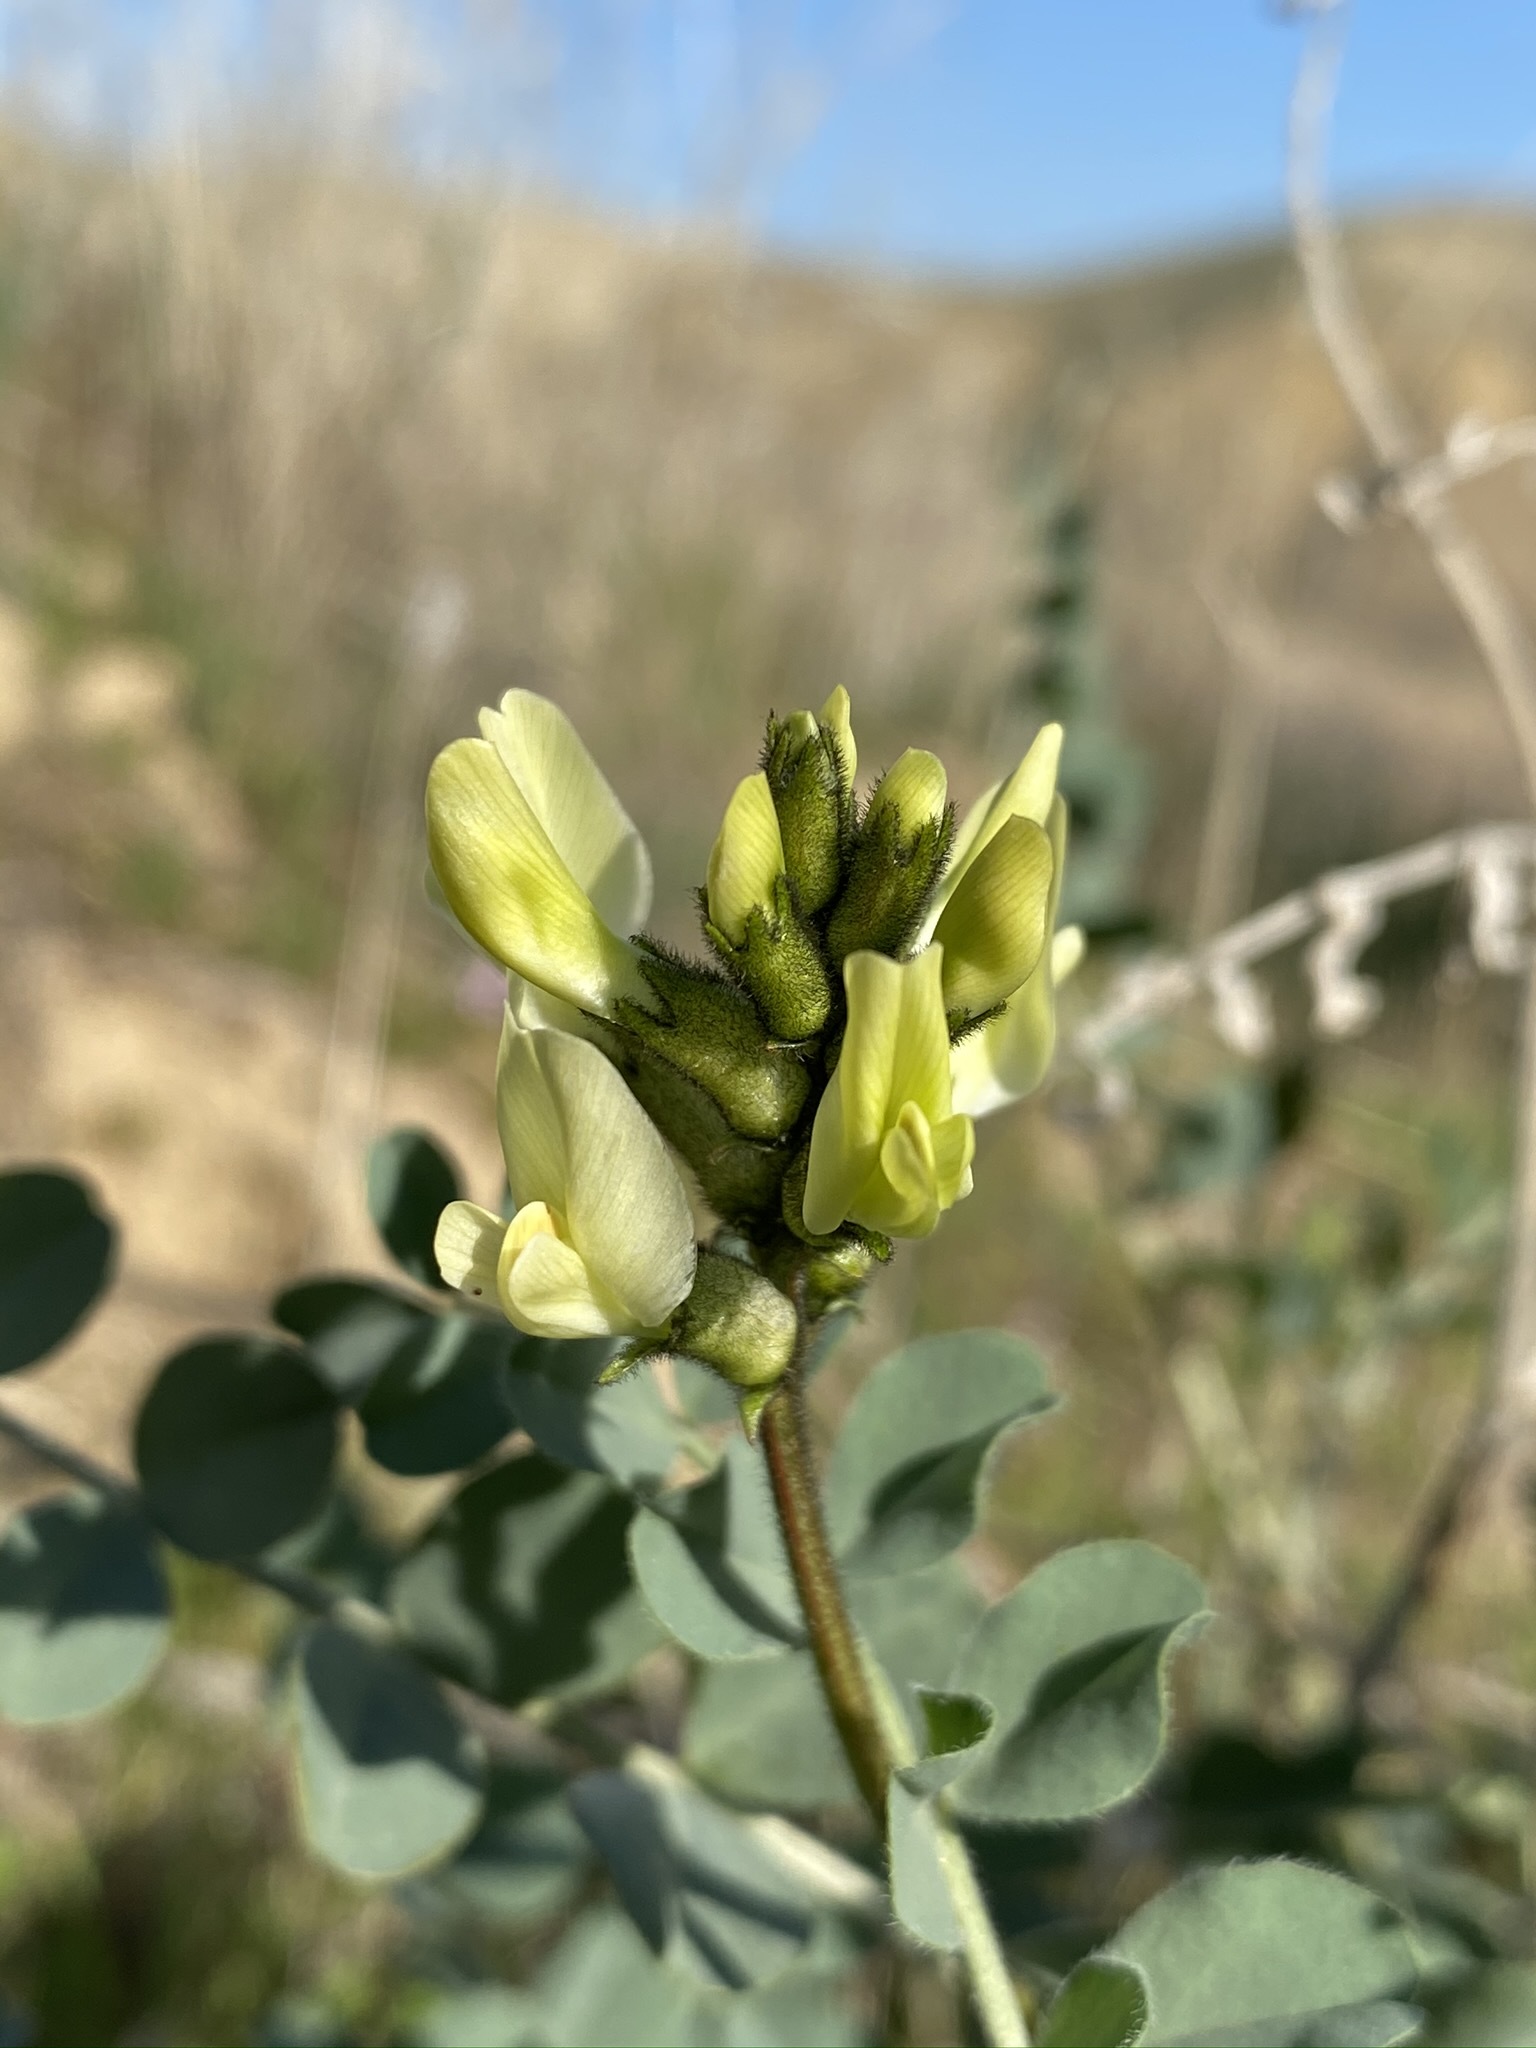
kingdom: Plantae
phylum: Tracheophyta
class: Magnoliopsida
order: Fabales
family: Fabaceae
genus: Astragalus
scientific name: Astragalus lentiginosus
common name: Freckled milkvetch
